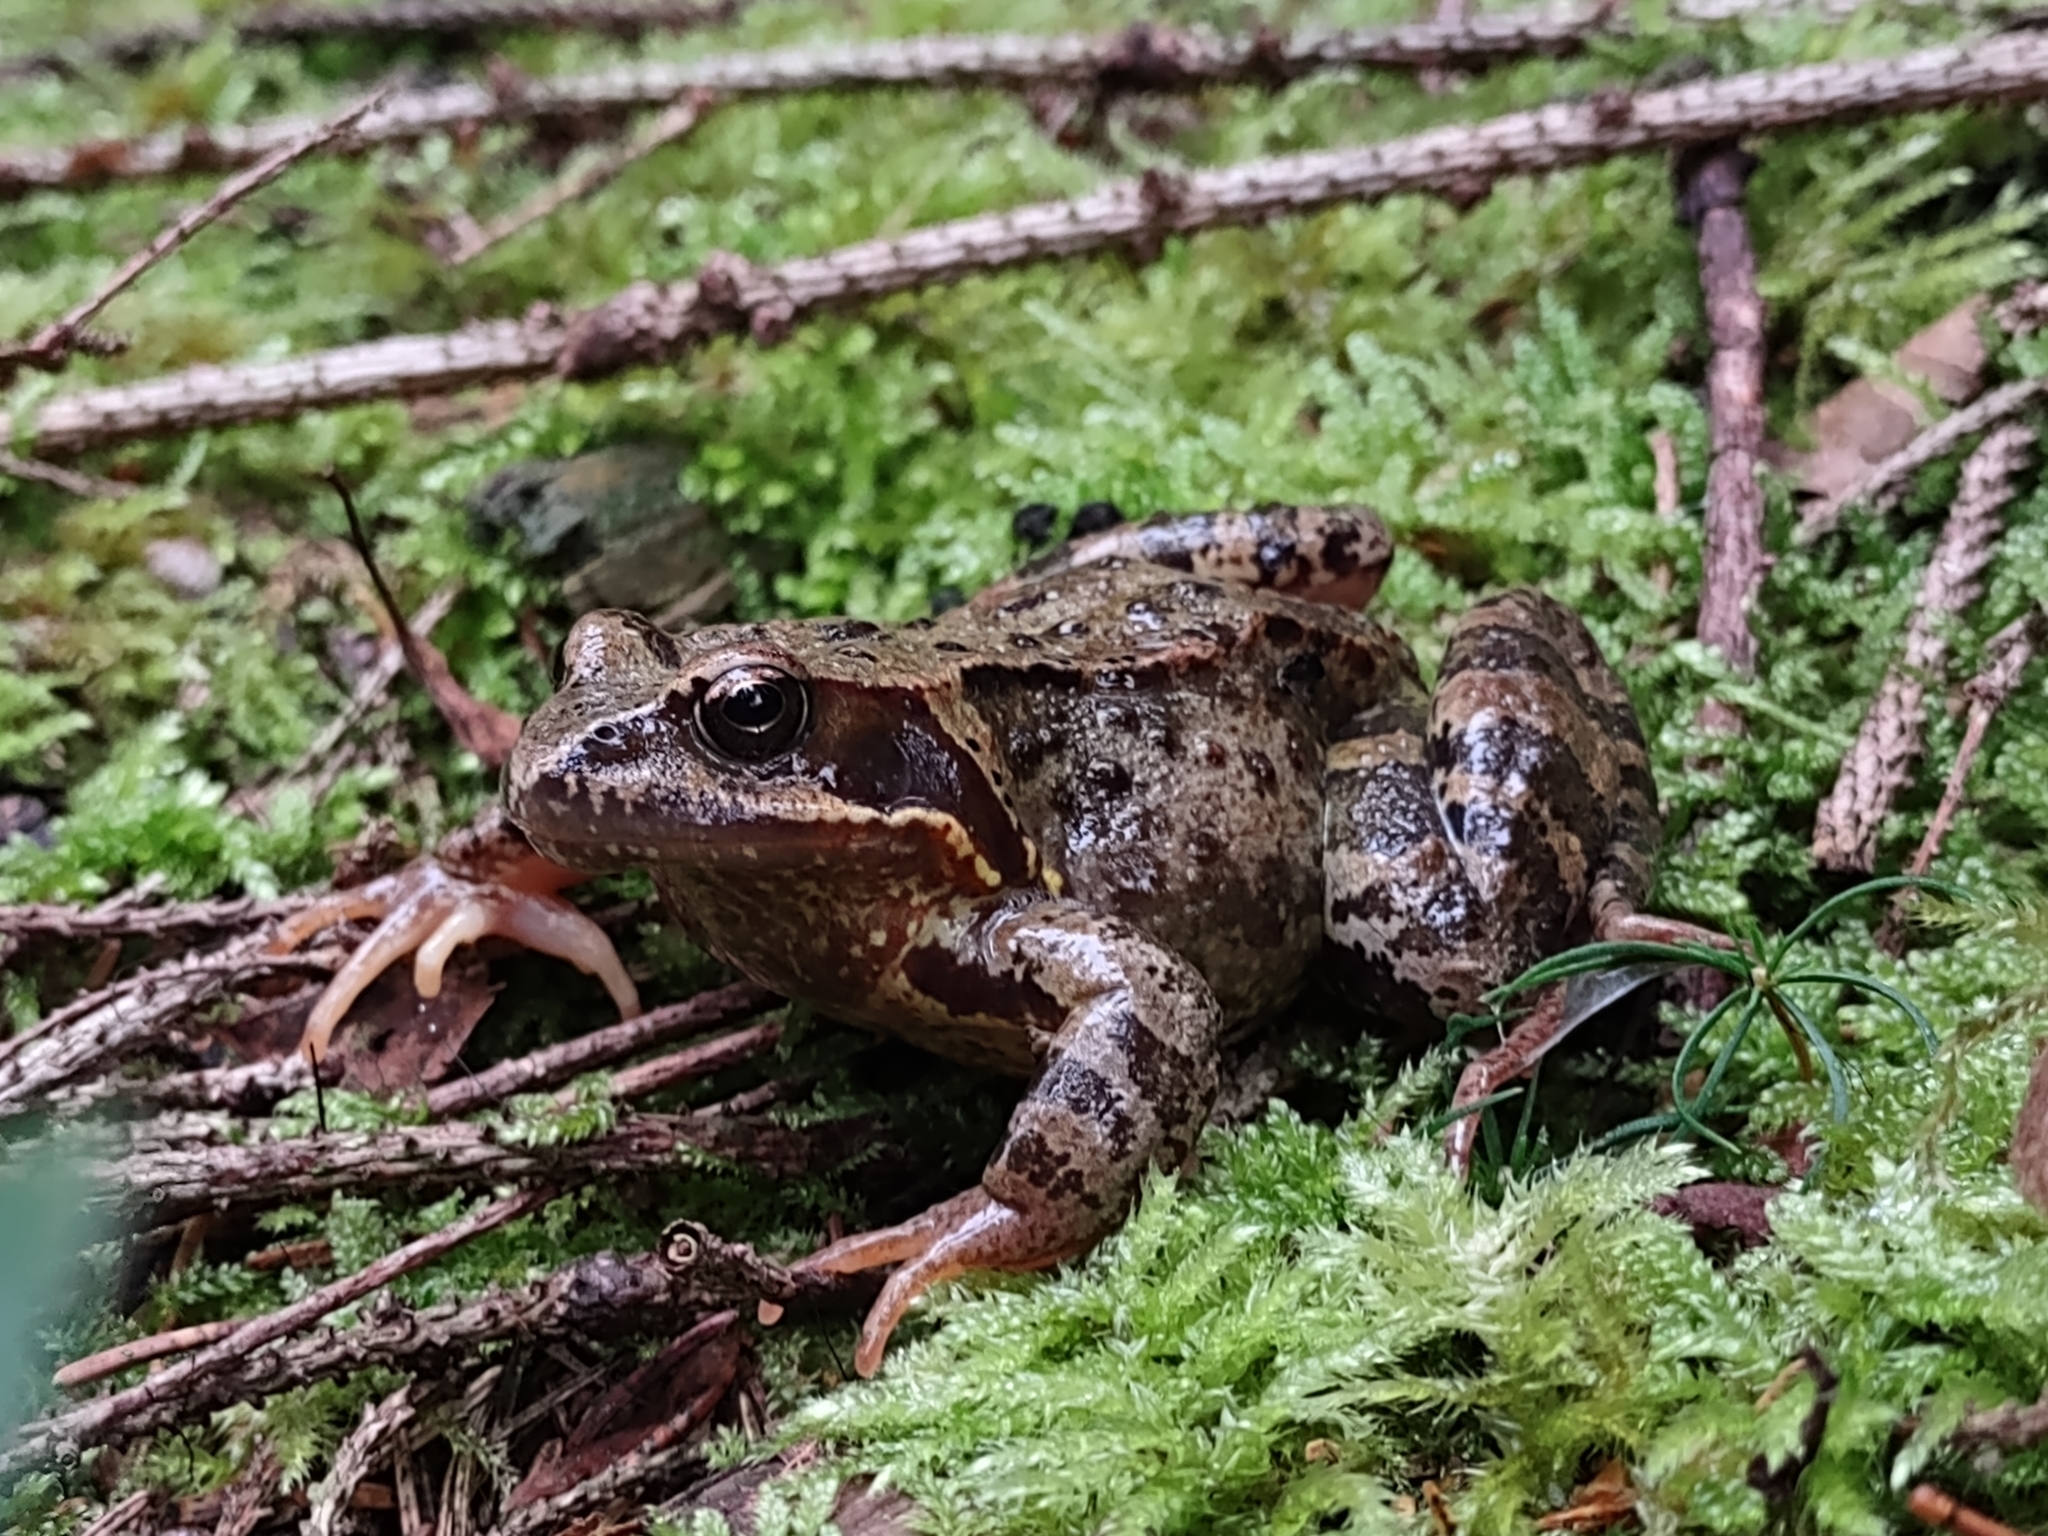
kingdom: Animalia
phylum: Chordata
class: Amphibia
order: Anura
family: Ranidae
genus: Rana
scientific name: Rana temporaria
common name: Common frog
